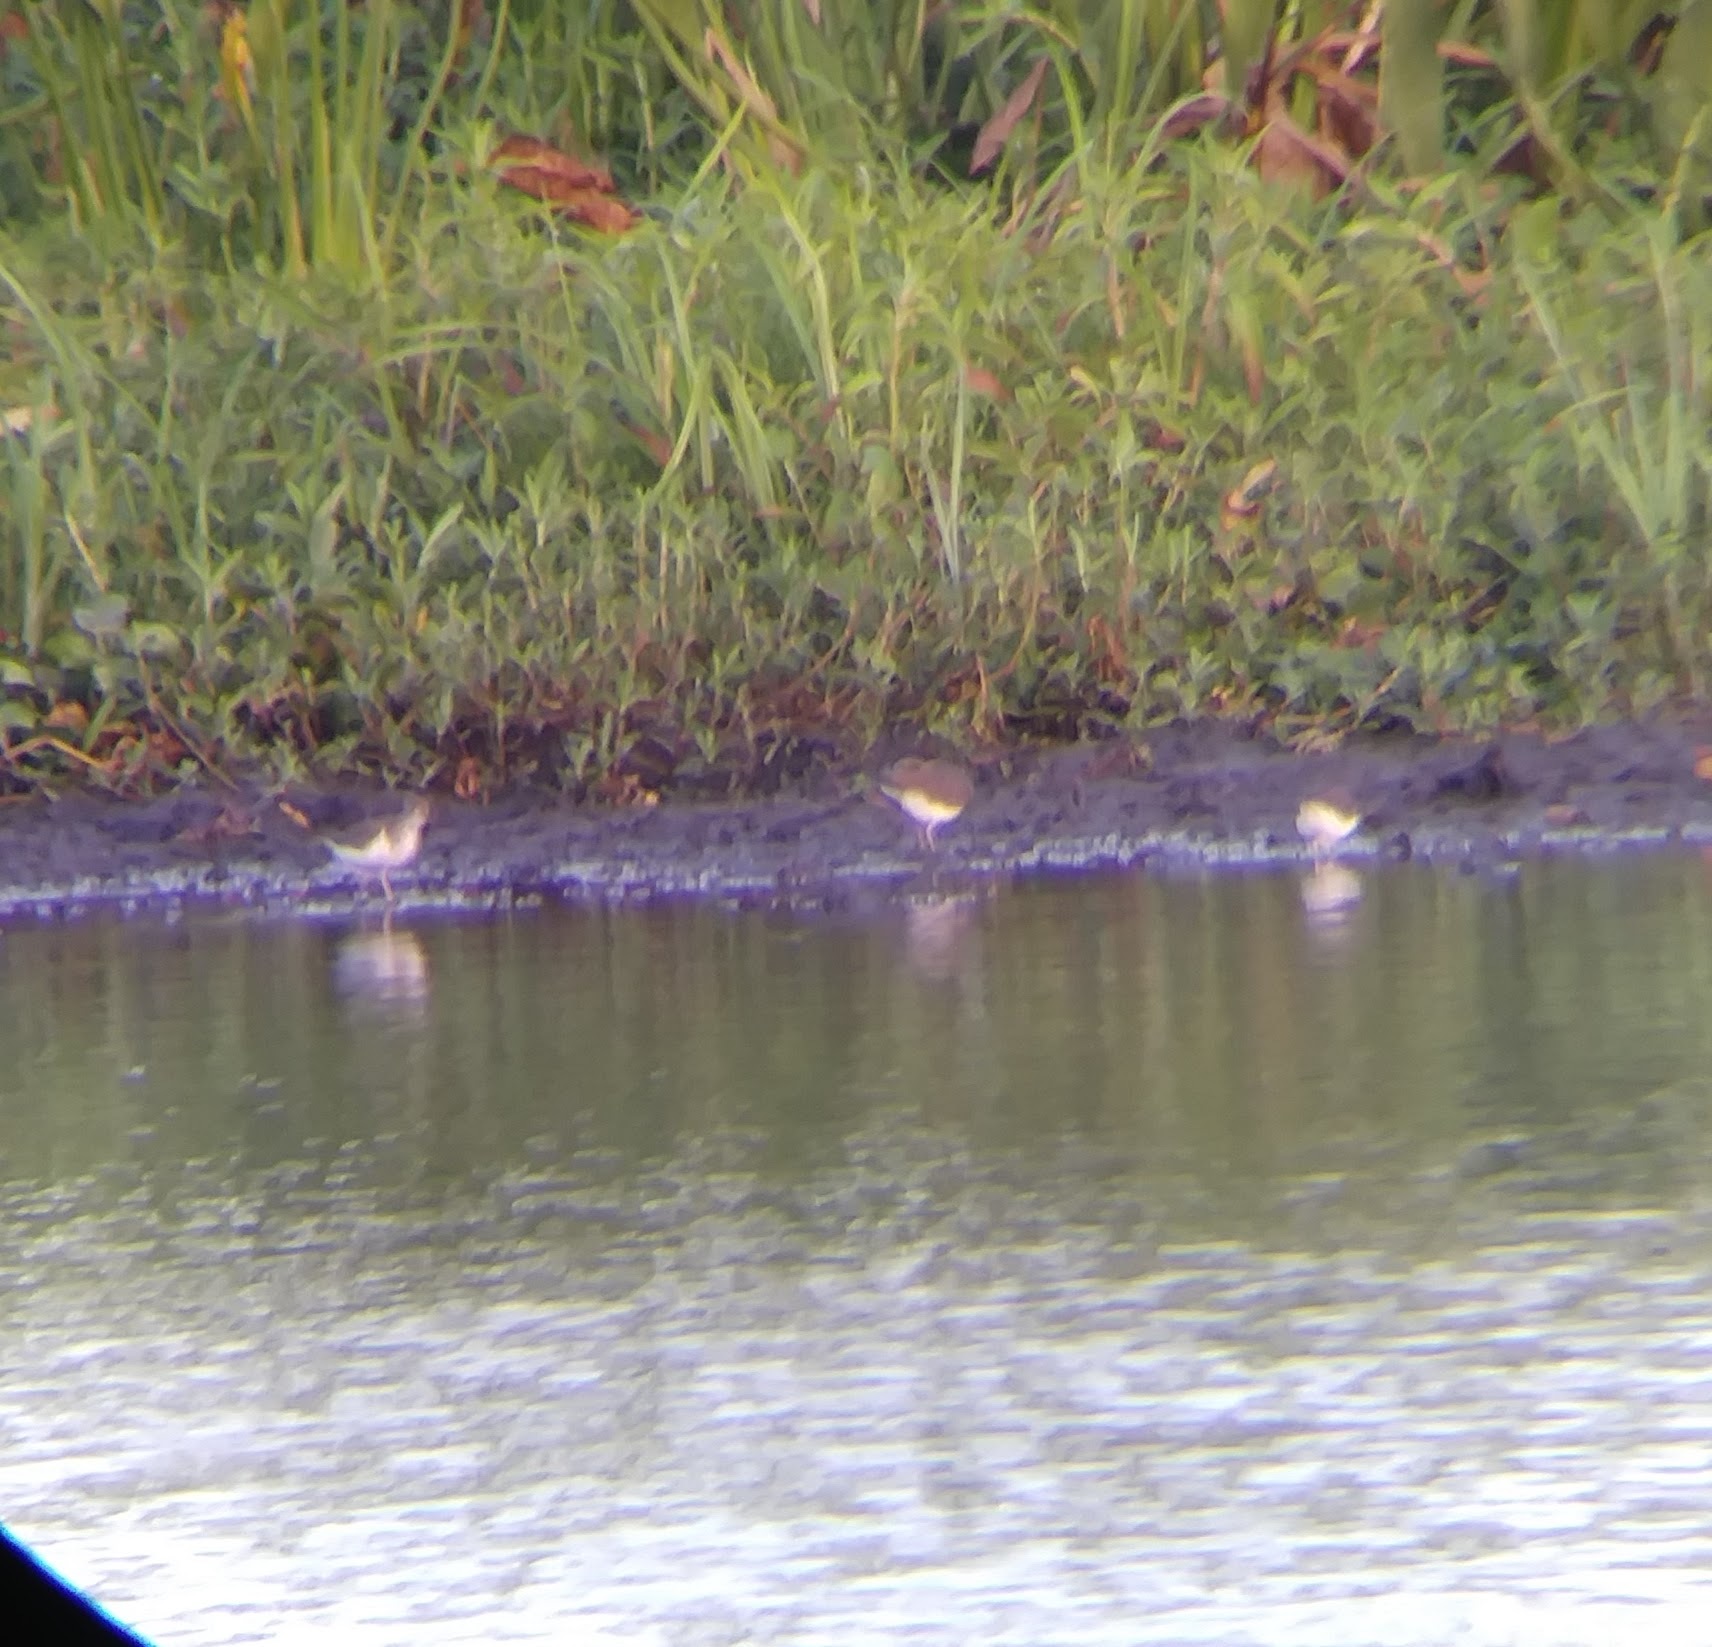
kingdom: Animalia
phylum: Chordata
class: Aves
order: Charadriiformes
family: Scolopacidae
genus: Actitis
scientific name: Actitis macularius
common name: Spotted sandpiper
